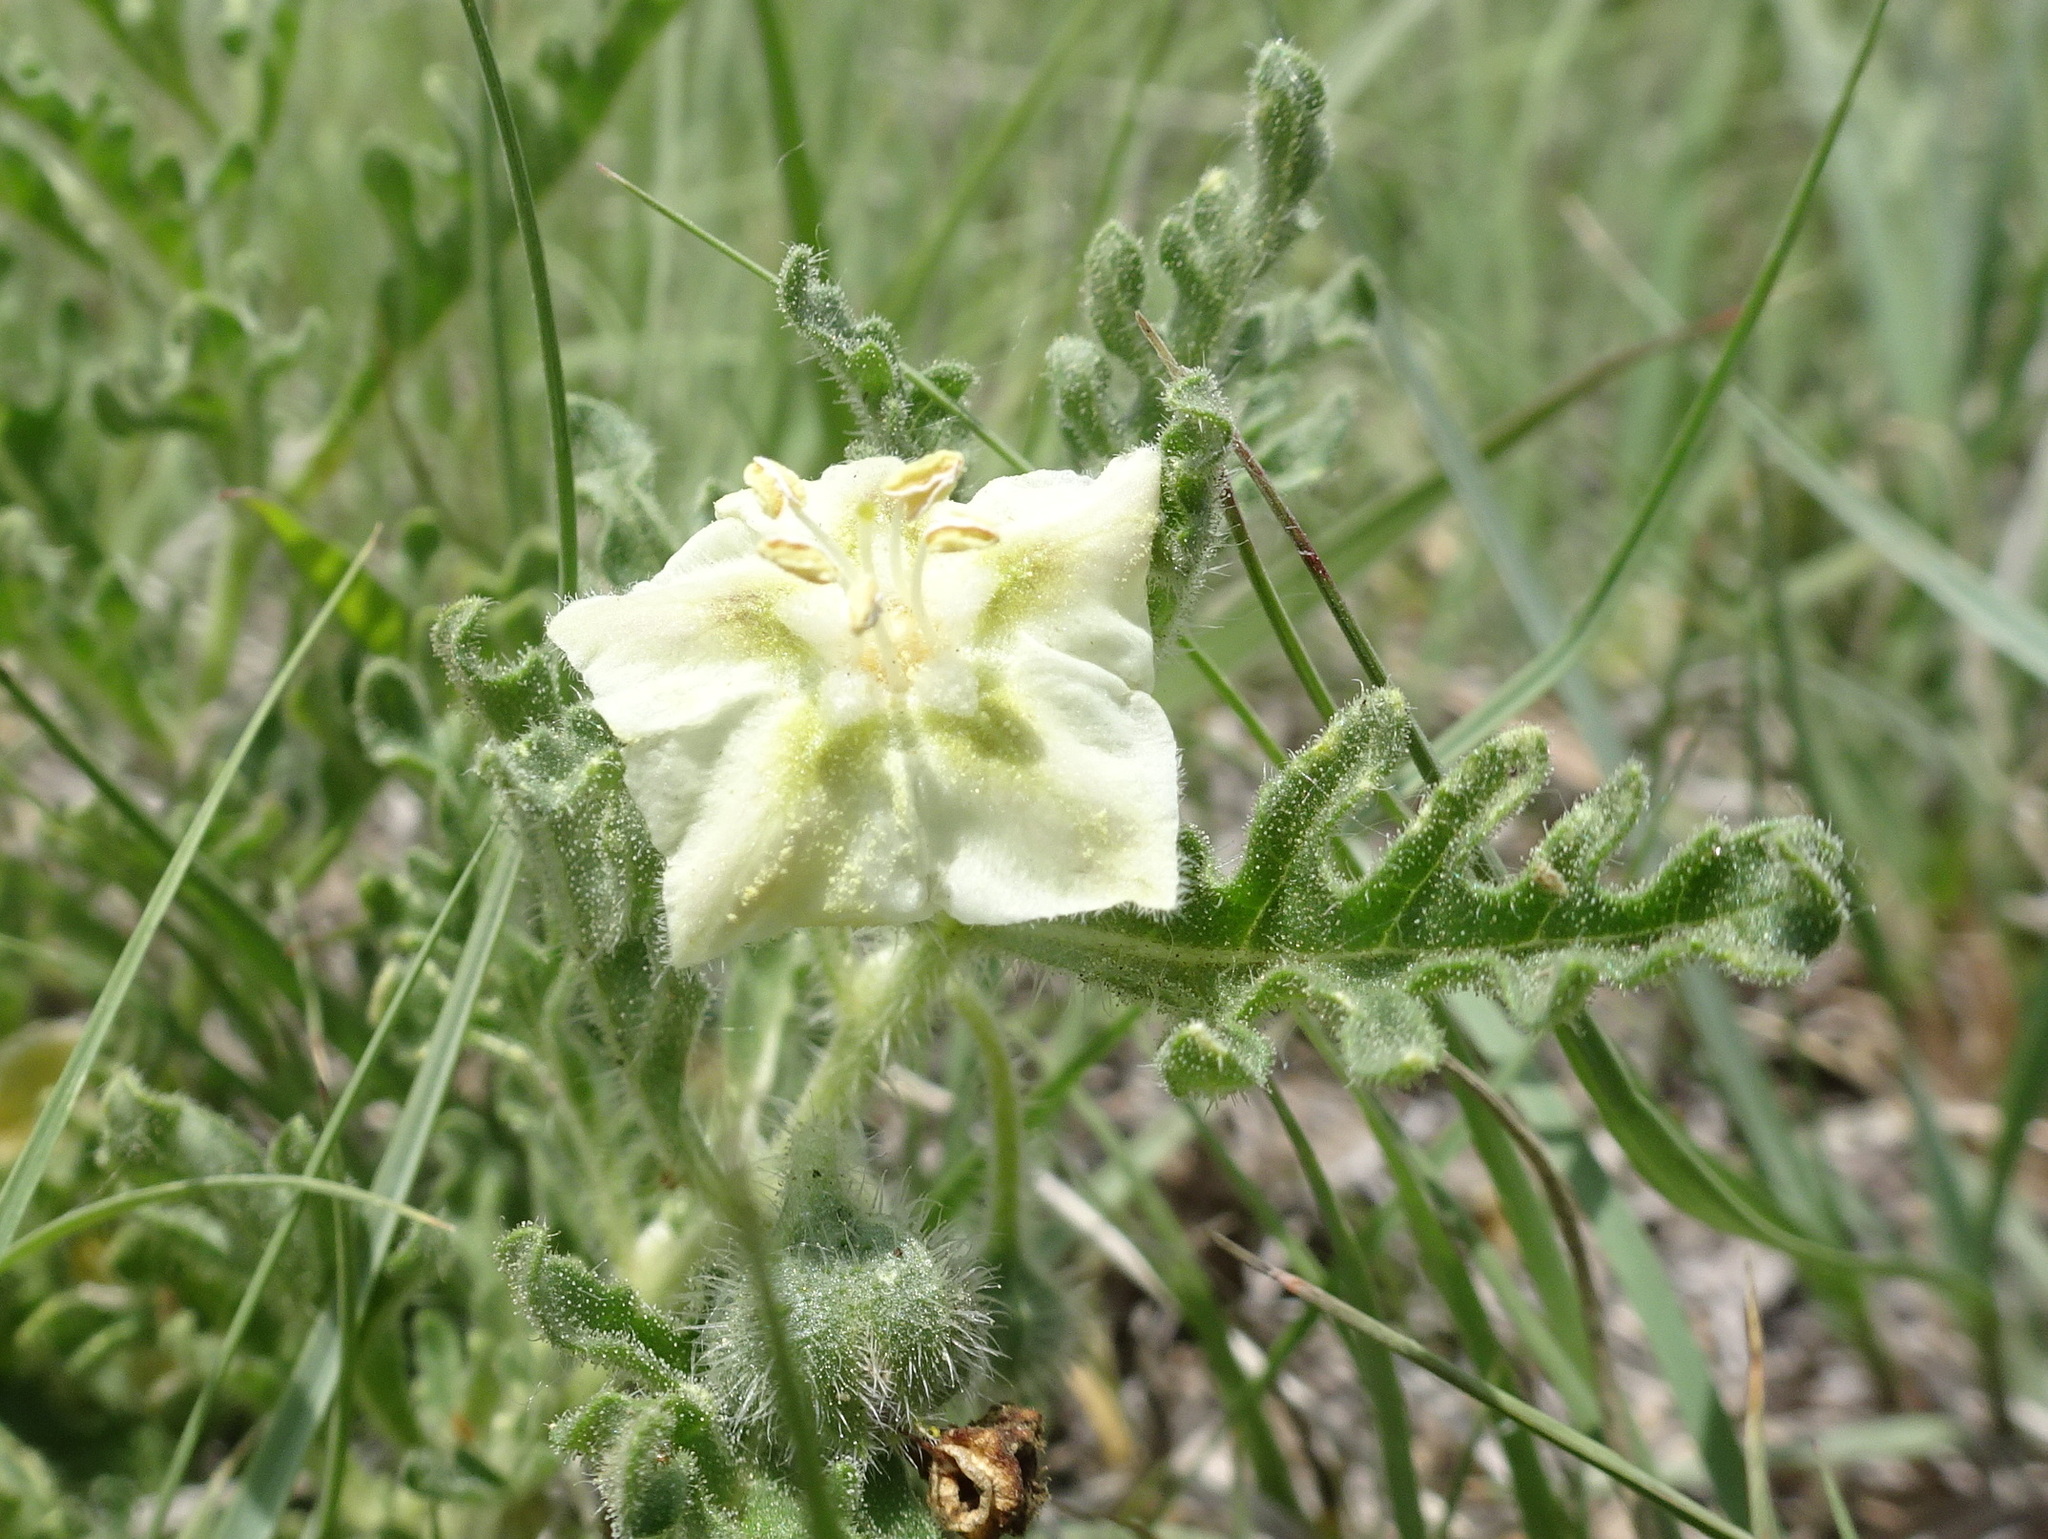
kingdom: Plantae
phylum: Tracheophyta
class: Magnoliopsida
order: Solanales
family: Solanaceae
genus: Chamaesaracha
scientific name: Chamaesaracha coniodes
